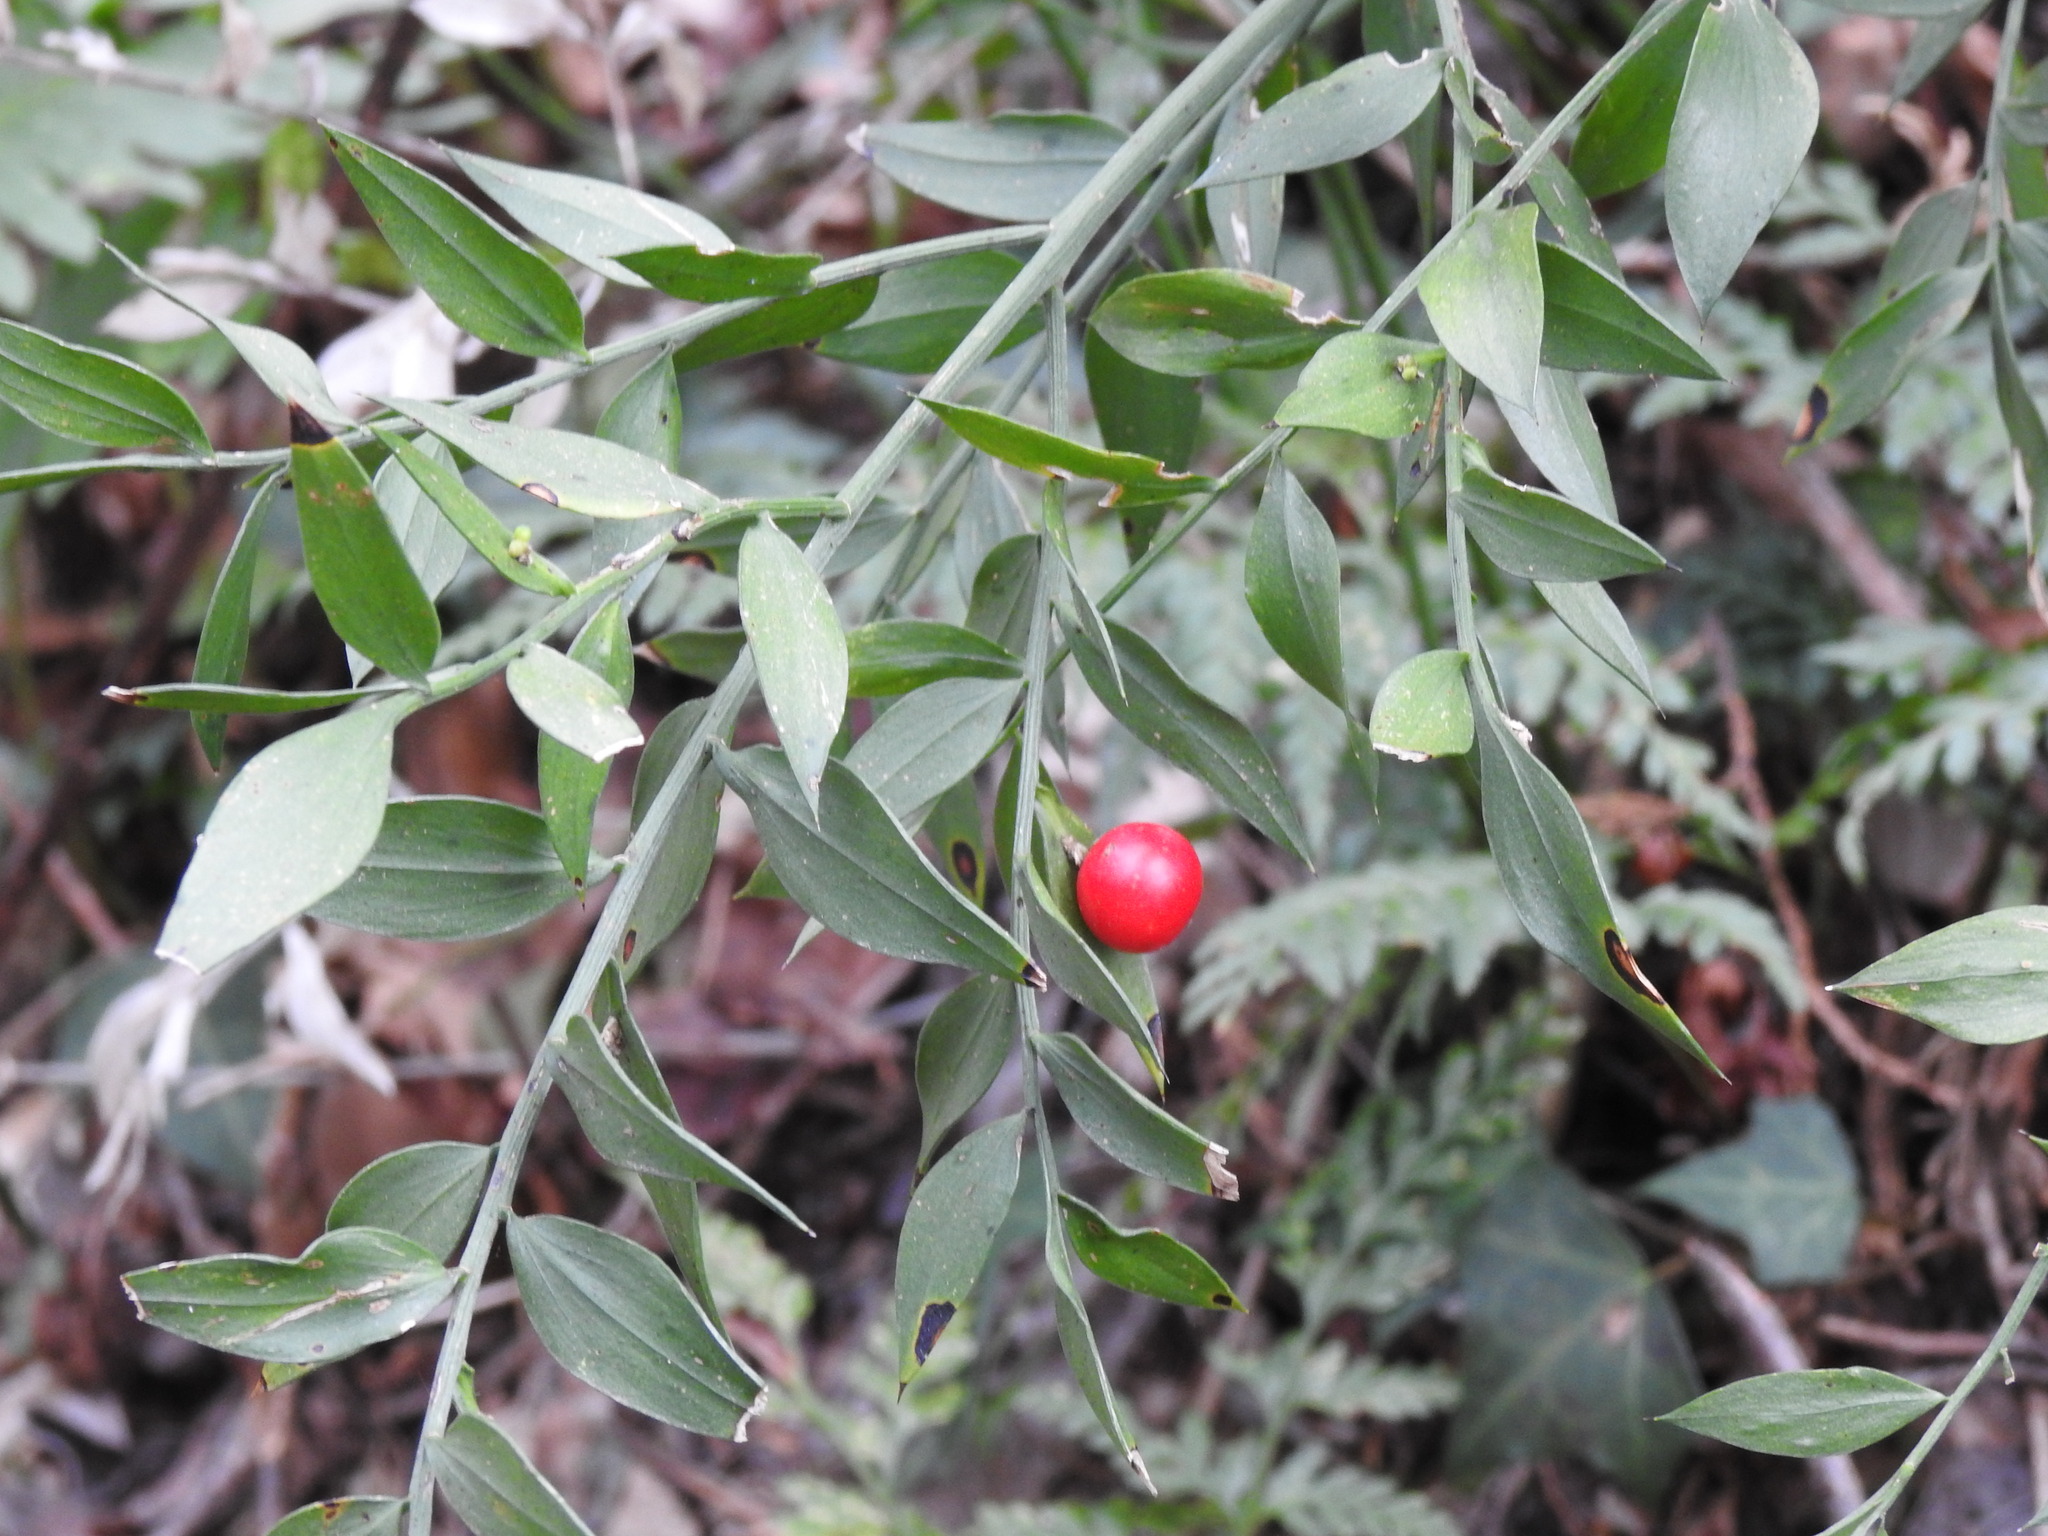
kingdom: Plantae
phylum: Tracheophyta
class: Liliopsida
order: Asparagales
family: Asparagaceae
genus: Ruscus
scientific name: Ruscus aculeatus
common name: Butcher's-broom
